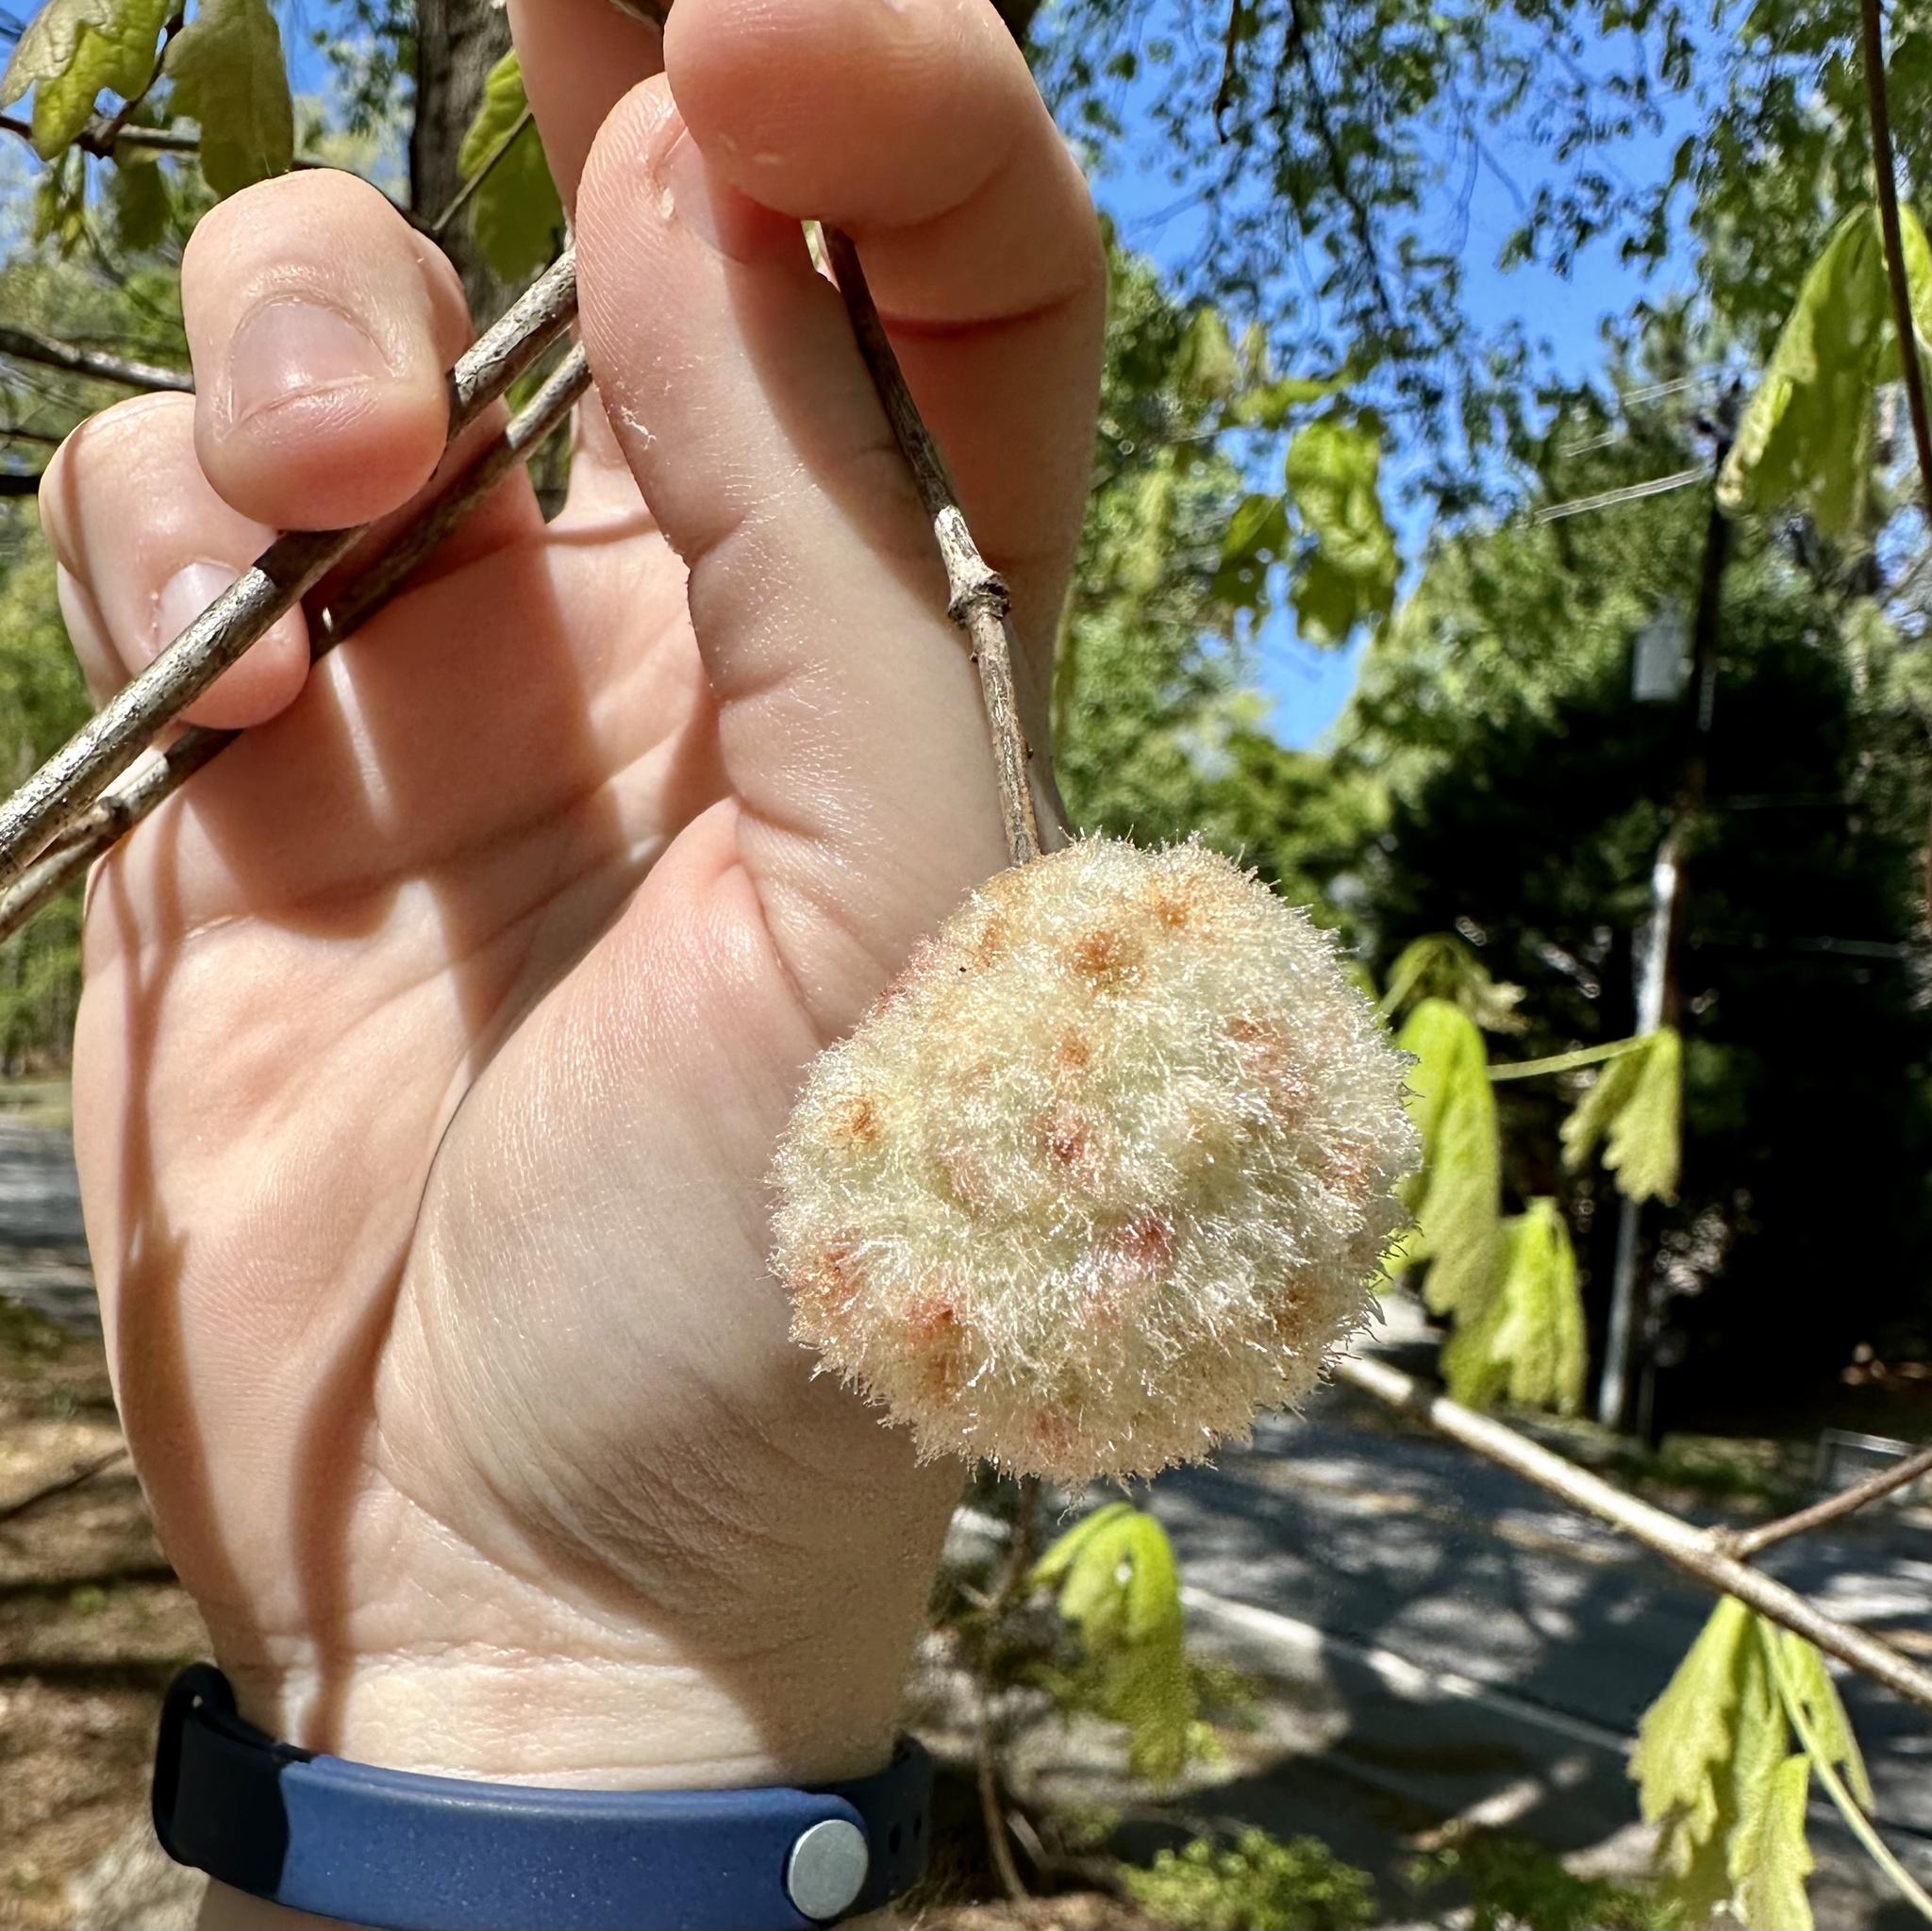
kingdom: Animalia
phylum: Arthropoda
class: Insecta
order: Hymenoptera
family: Cynipidae
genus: Callirhytis
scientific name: Callirhytis
